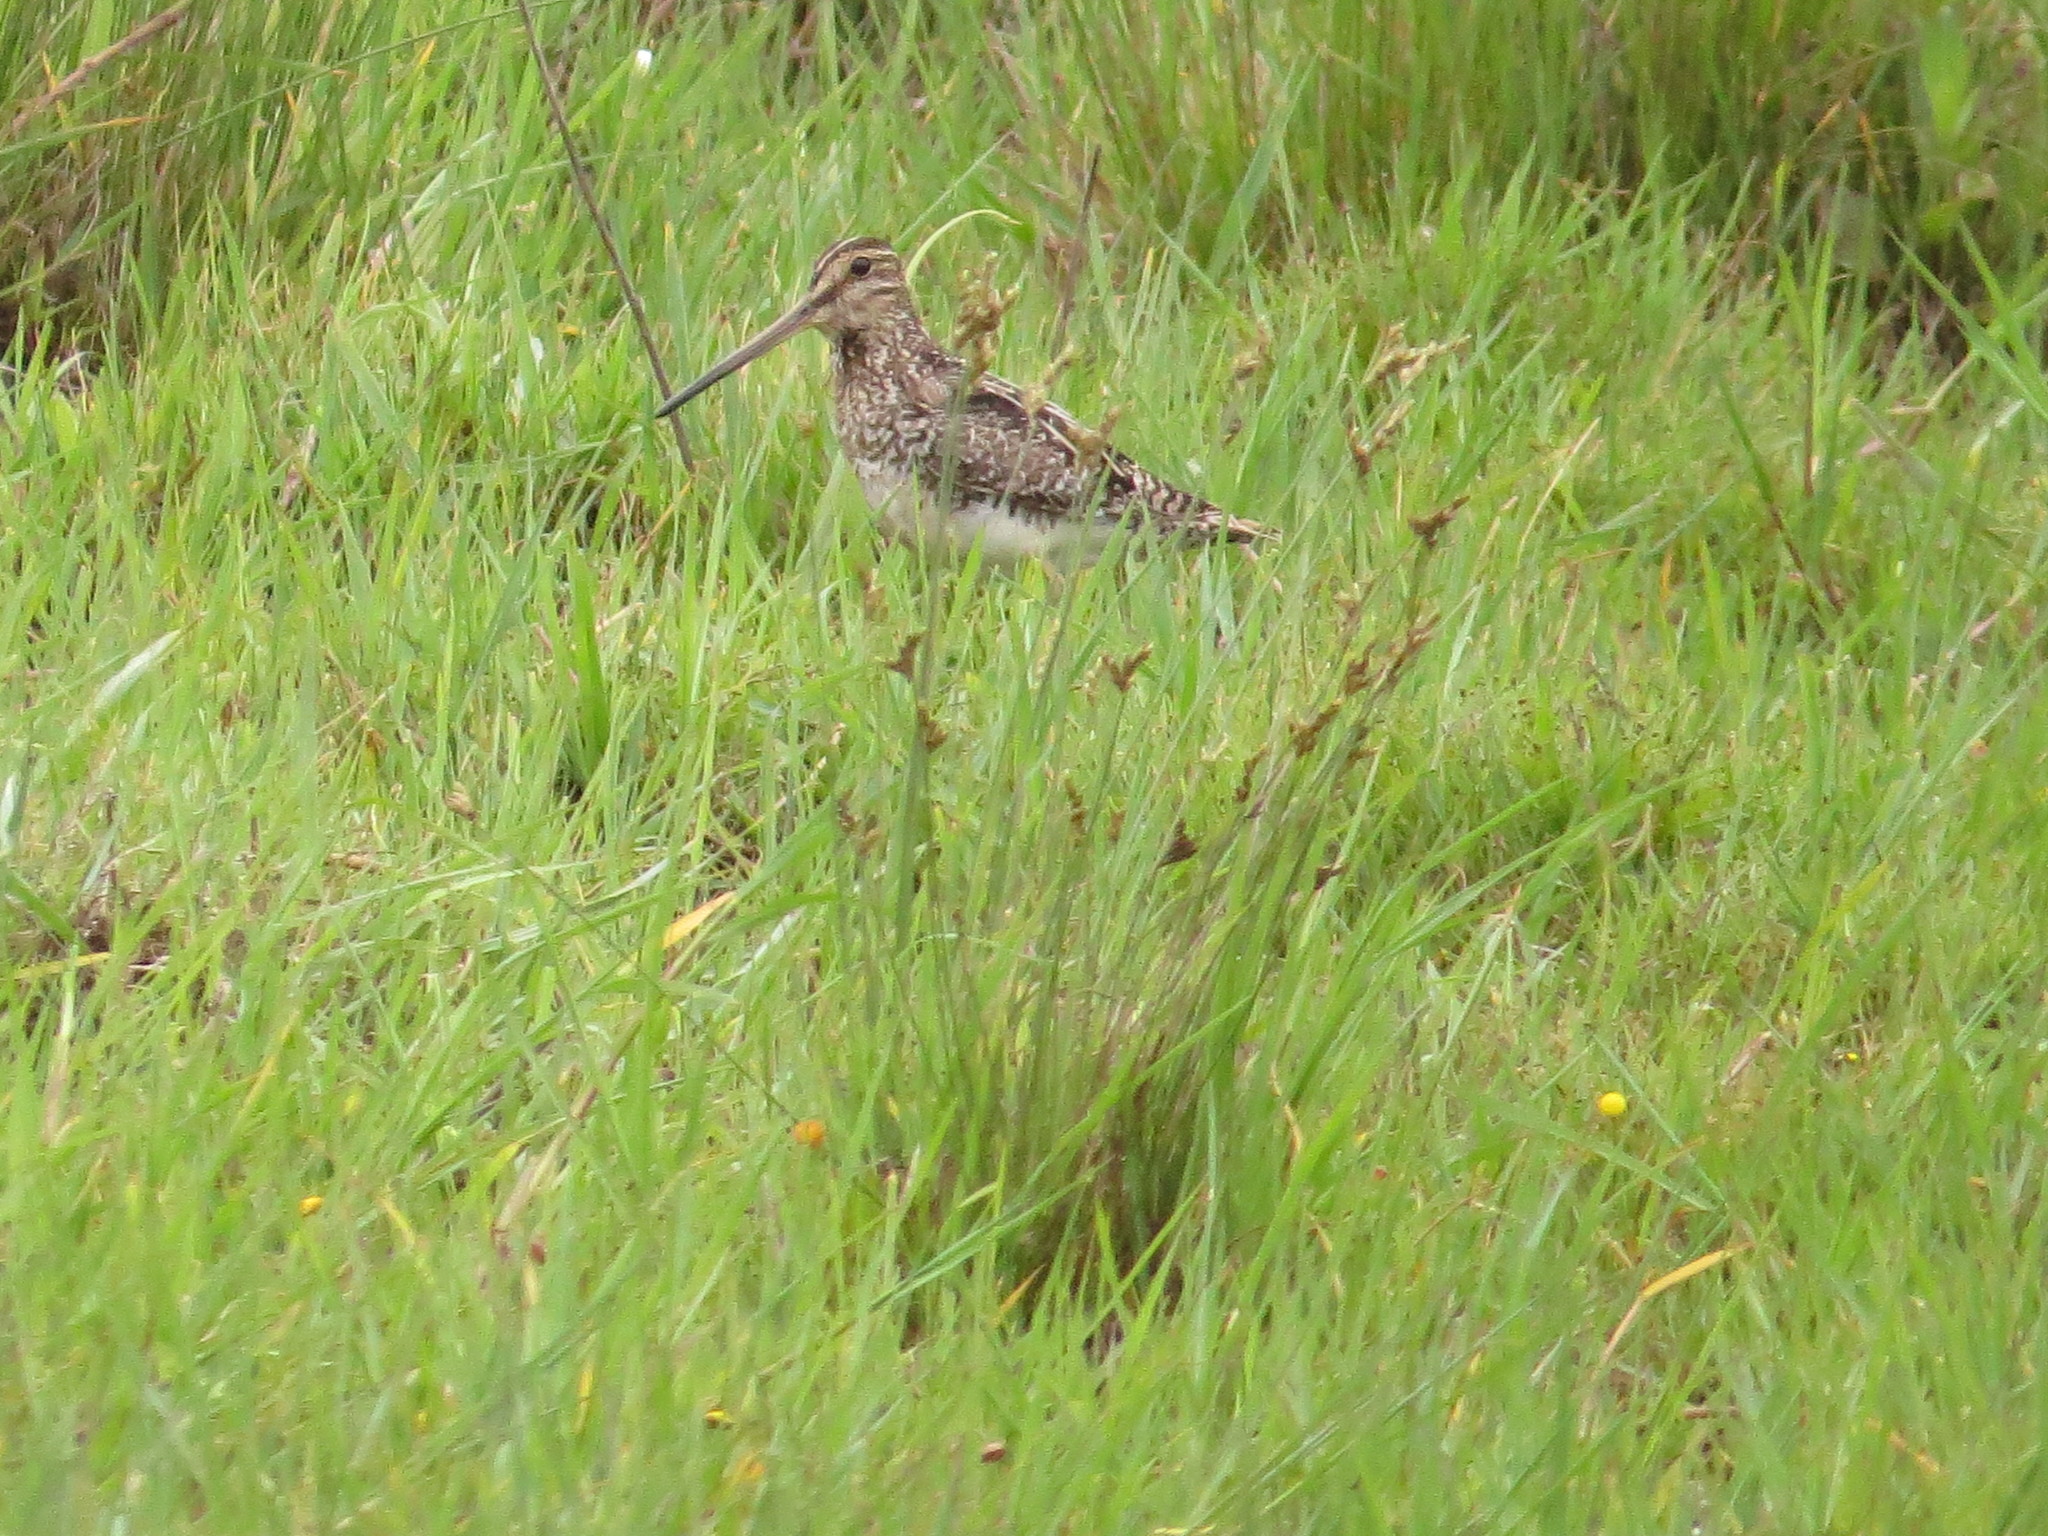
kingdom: Animalia
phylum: Chordata
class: Aves
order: Charadriiformes
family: Scolopacidae
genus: Gallinago
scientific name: Gallinago paraguaiae
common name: South american snipe
